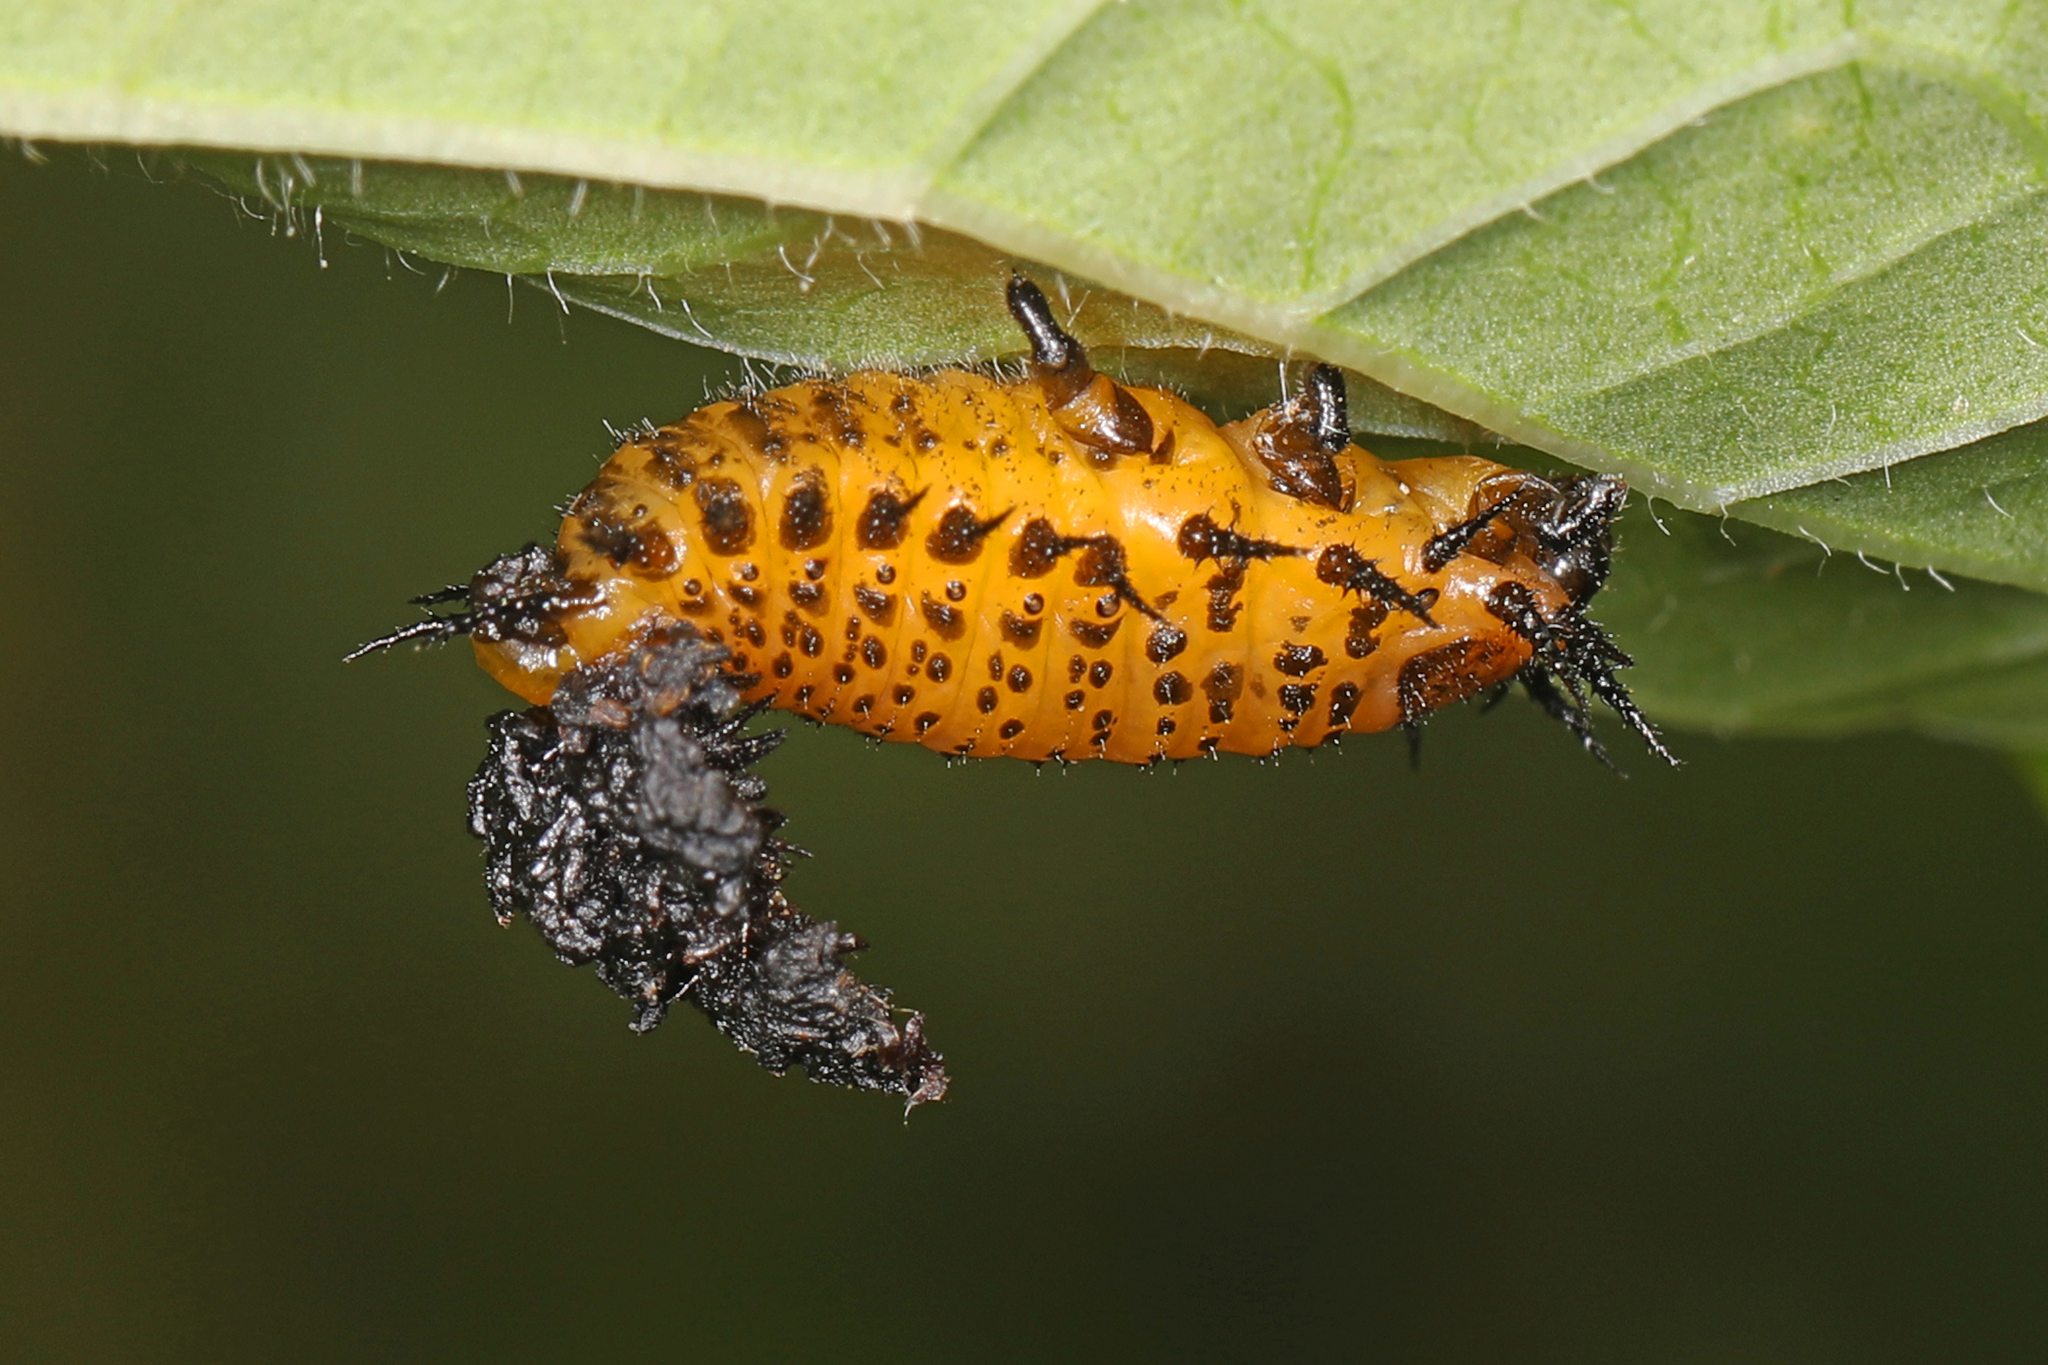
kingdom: Animalia
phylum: Arthropoda
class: Insecta
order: Coleoptera
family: Chrysomelidae
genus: Chelymorpha
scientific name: Chelymorpha cassidea
